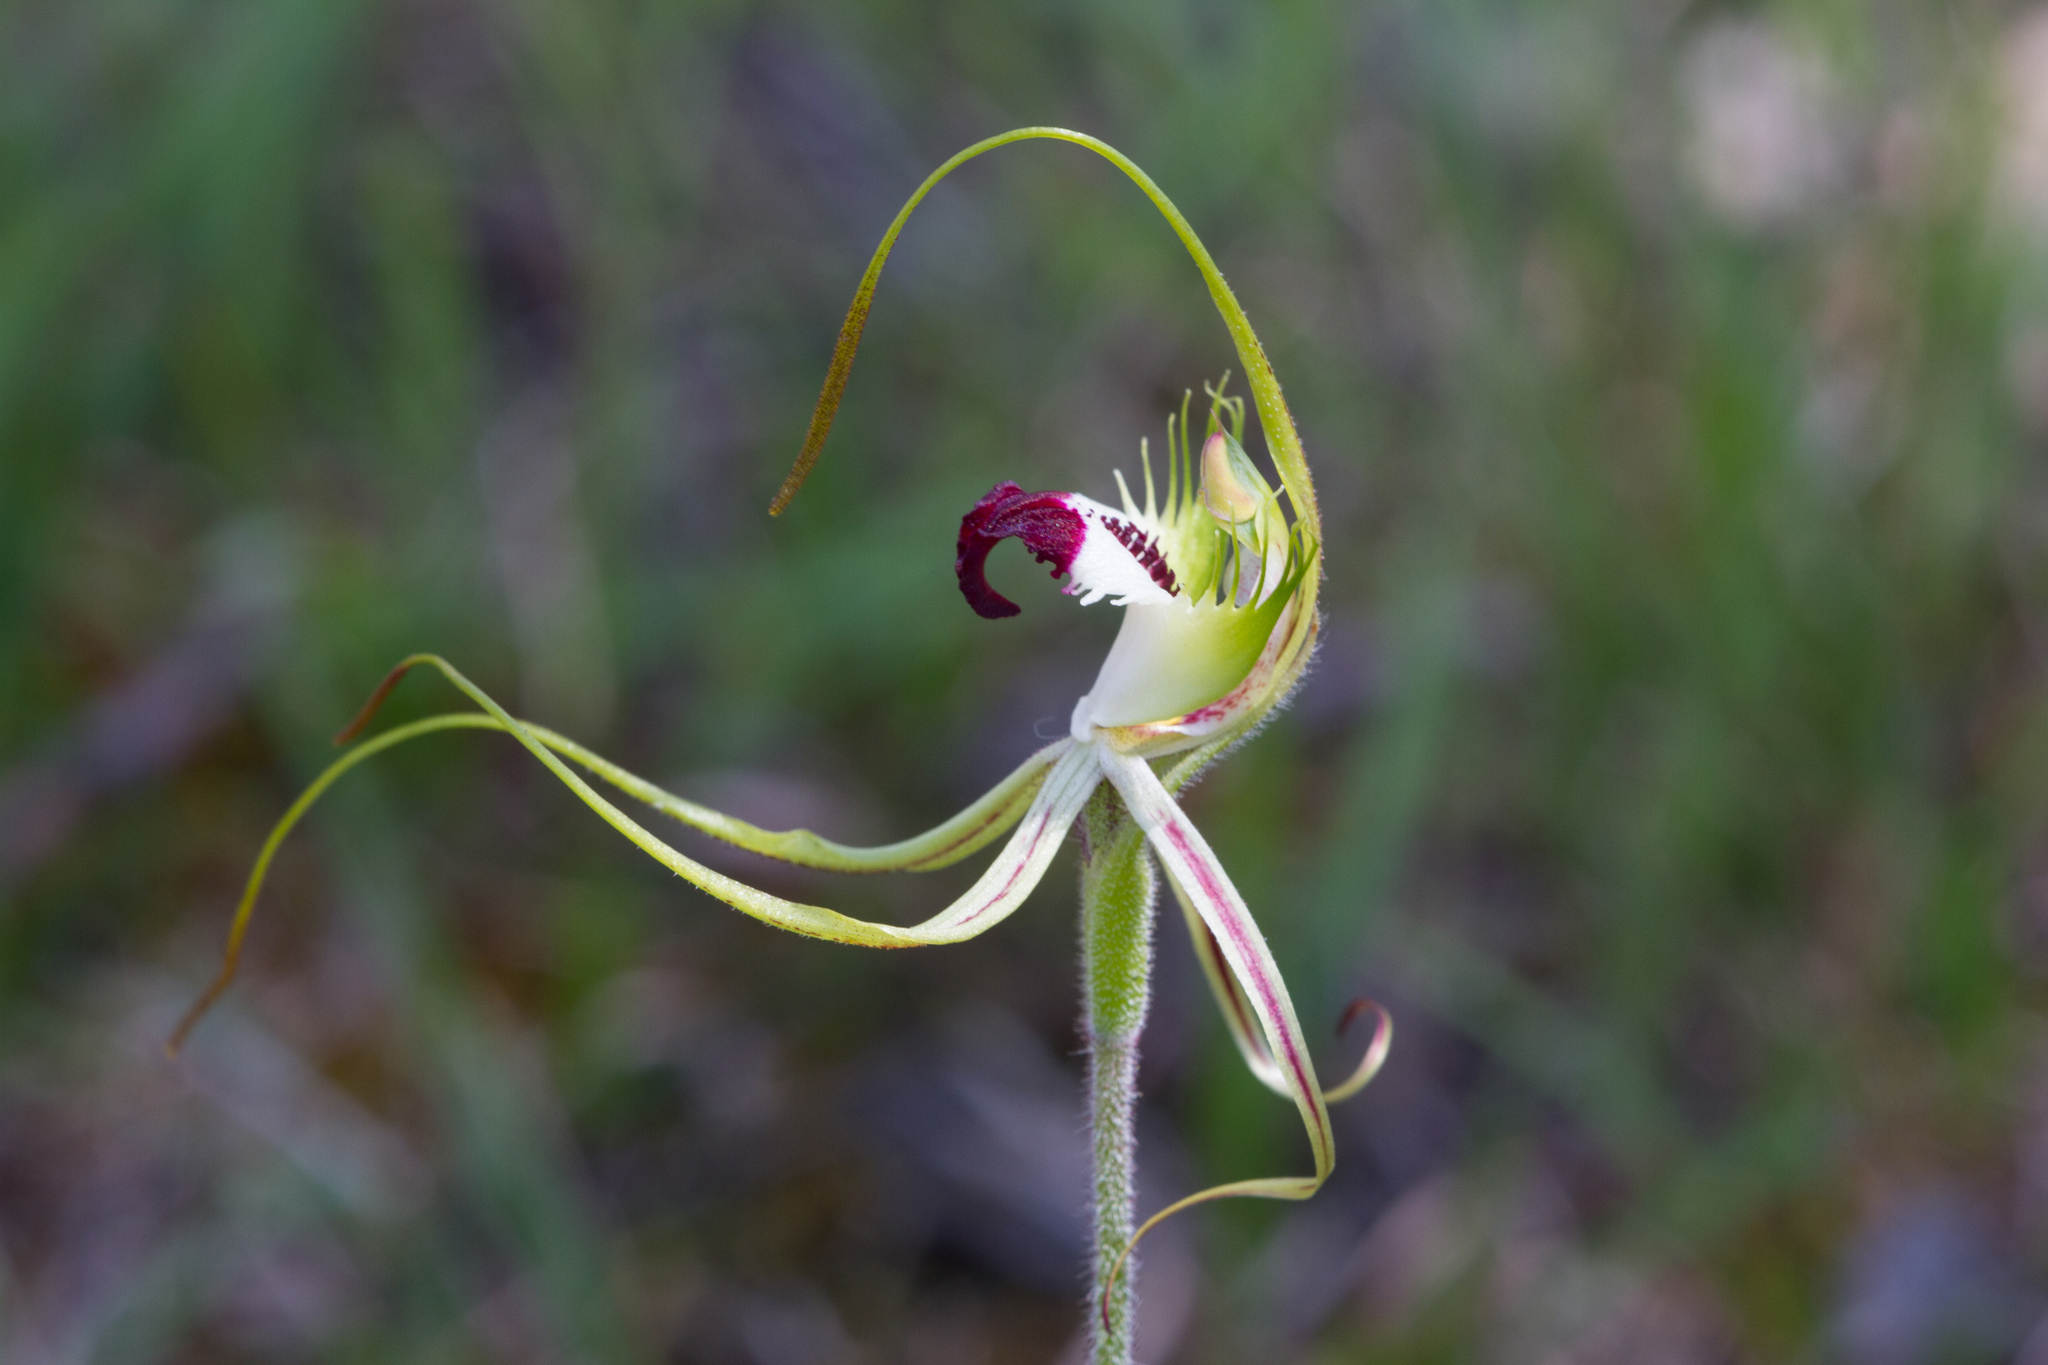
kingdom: Plantae
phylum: Tracheophyta
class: Liliopsida
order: Asparagales
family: Orchidaceae
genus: Caladenia
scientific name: Caladenia tentaculata
